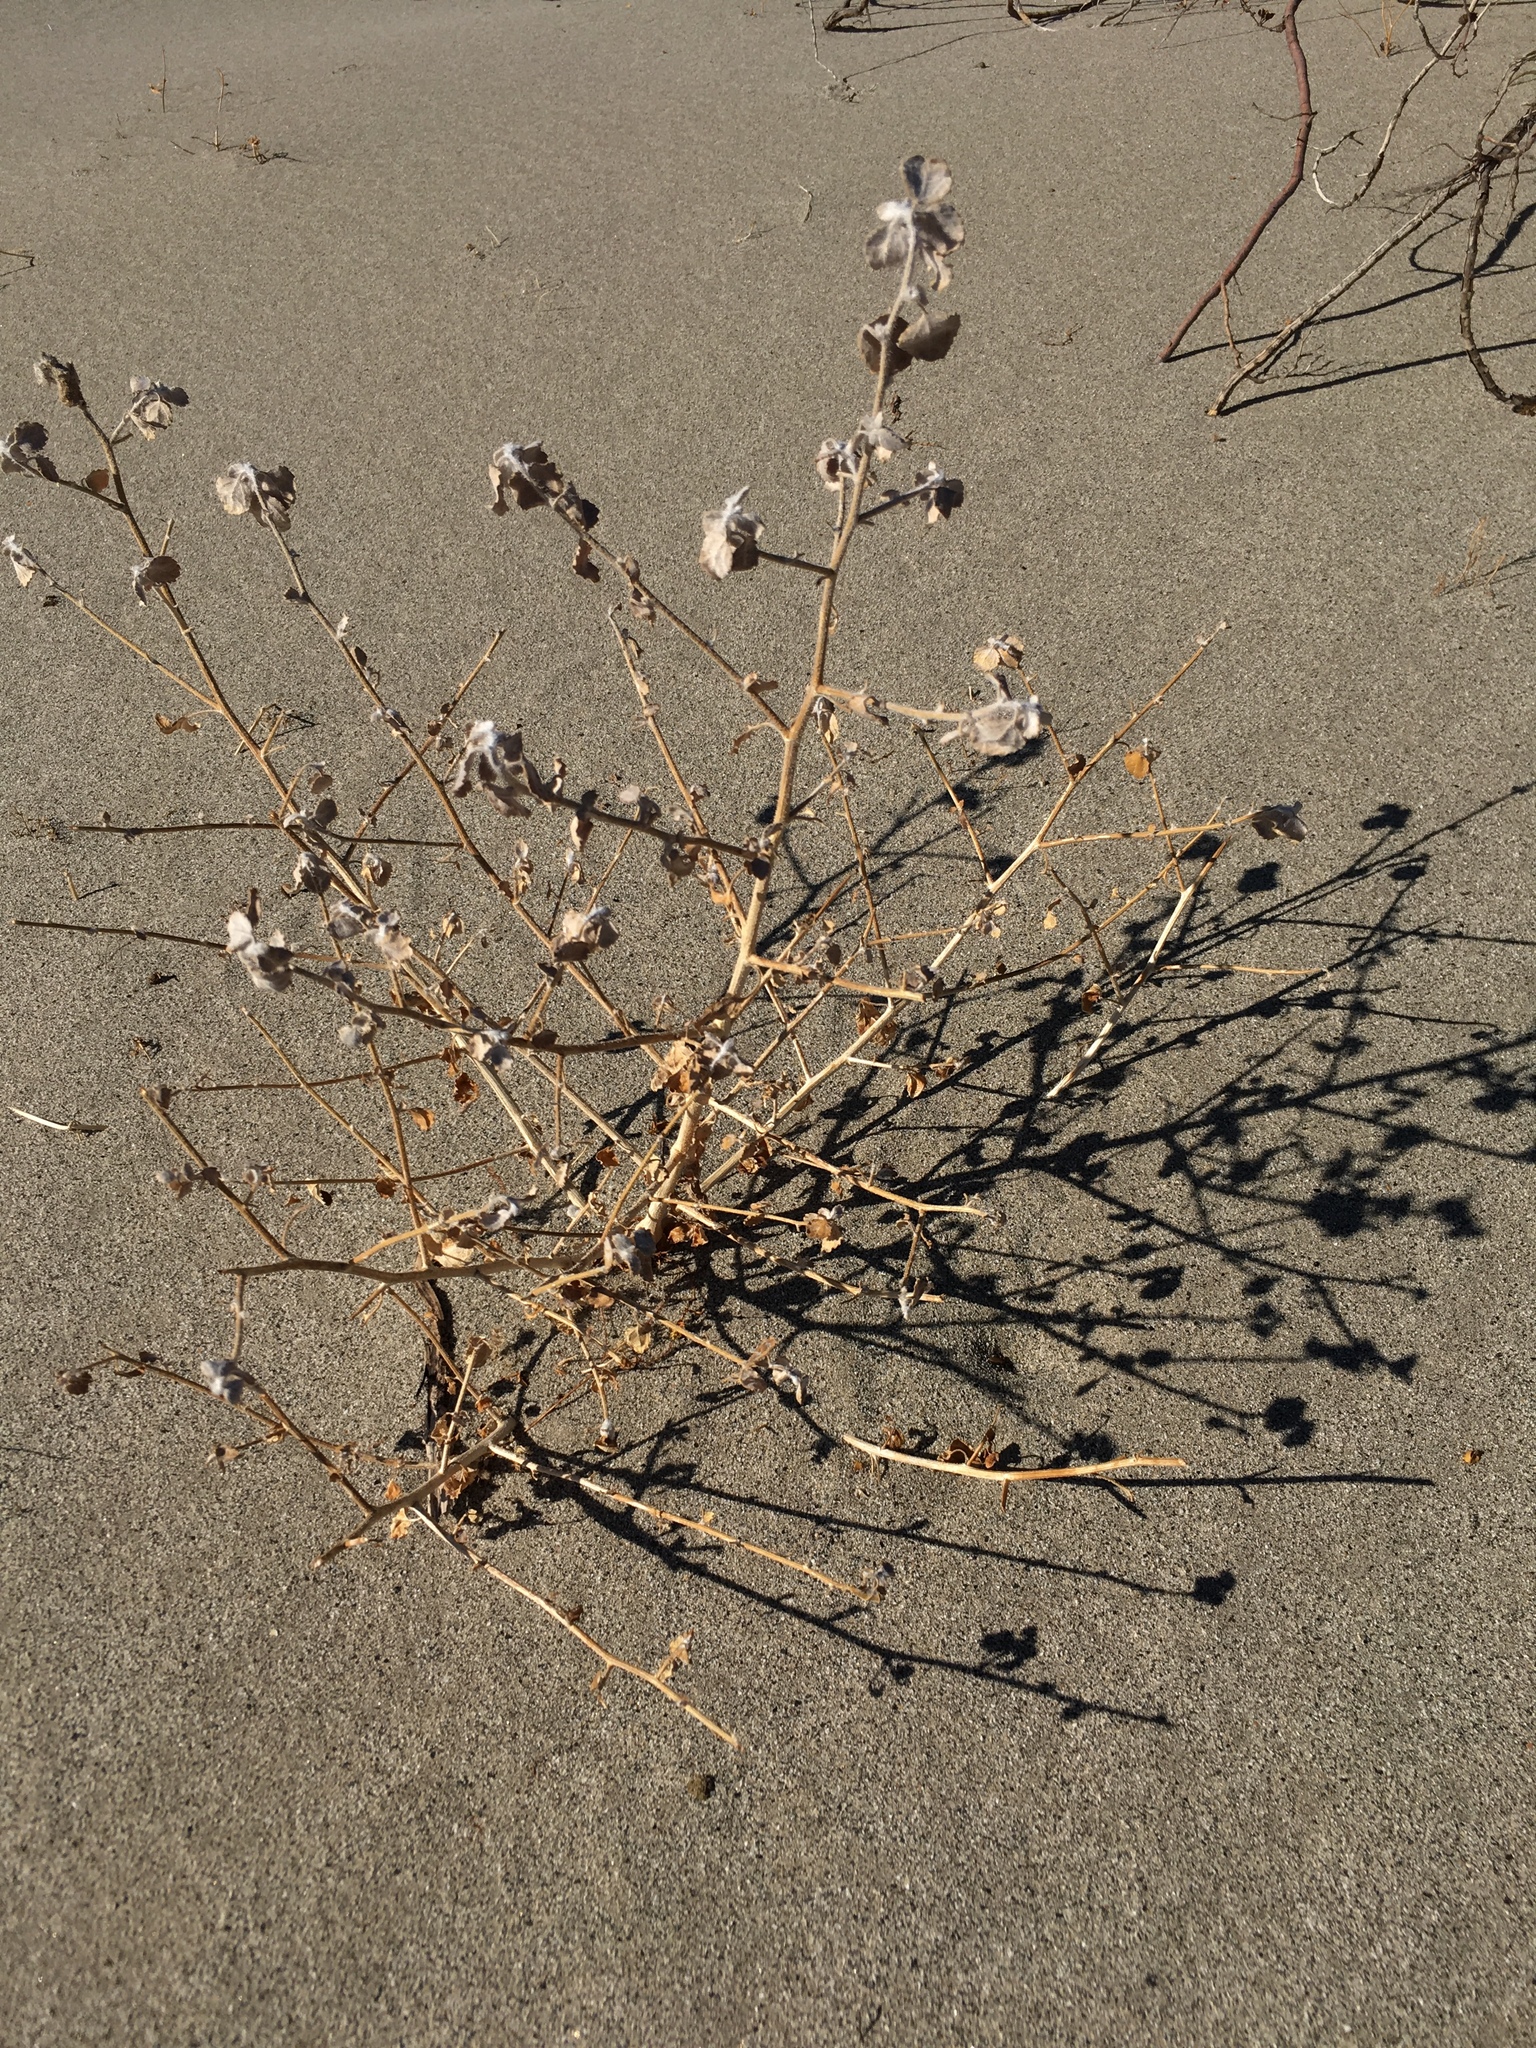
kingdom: Plantae
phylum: Tracheophyta
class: Magnoliopsida
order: Asterales
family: Asteraceae
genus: Dicoria
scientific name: Dicoria canescens
